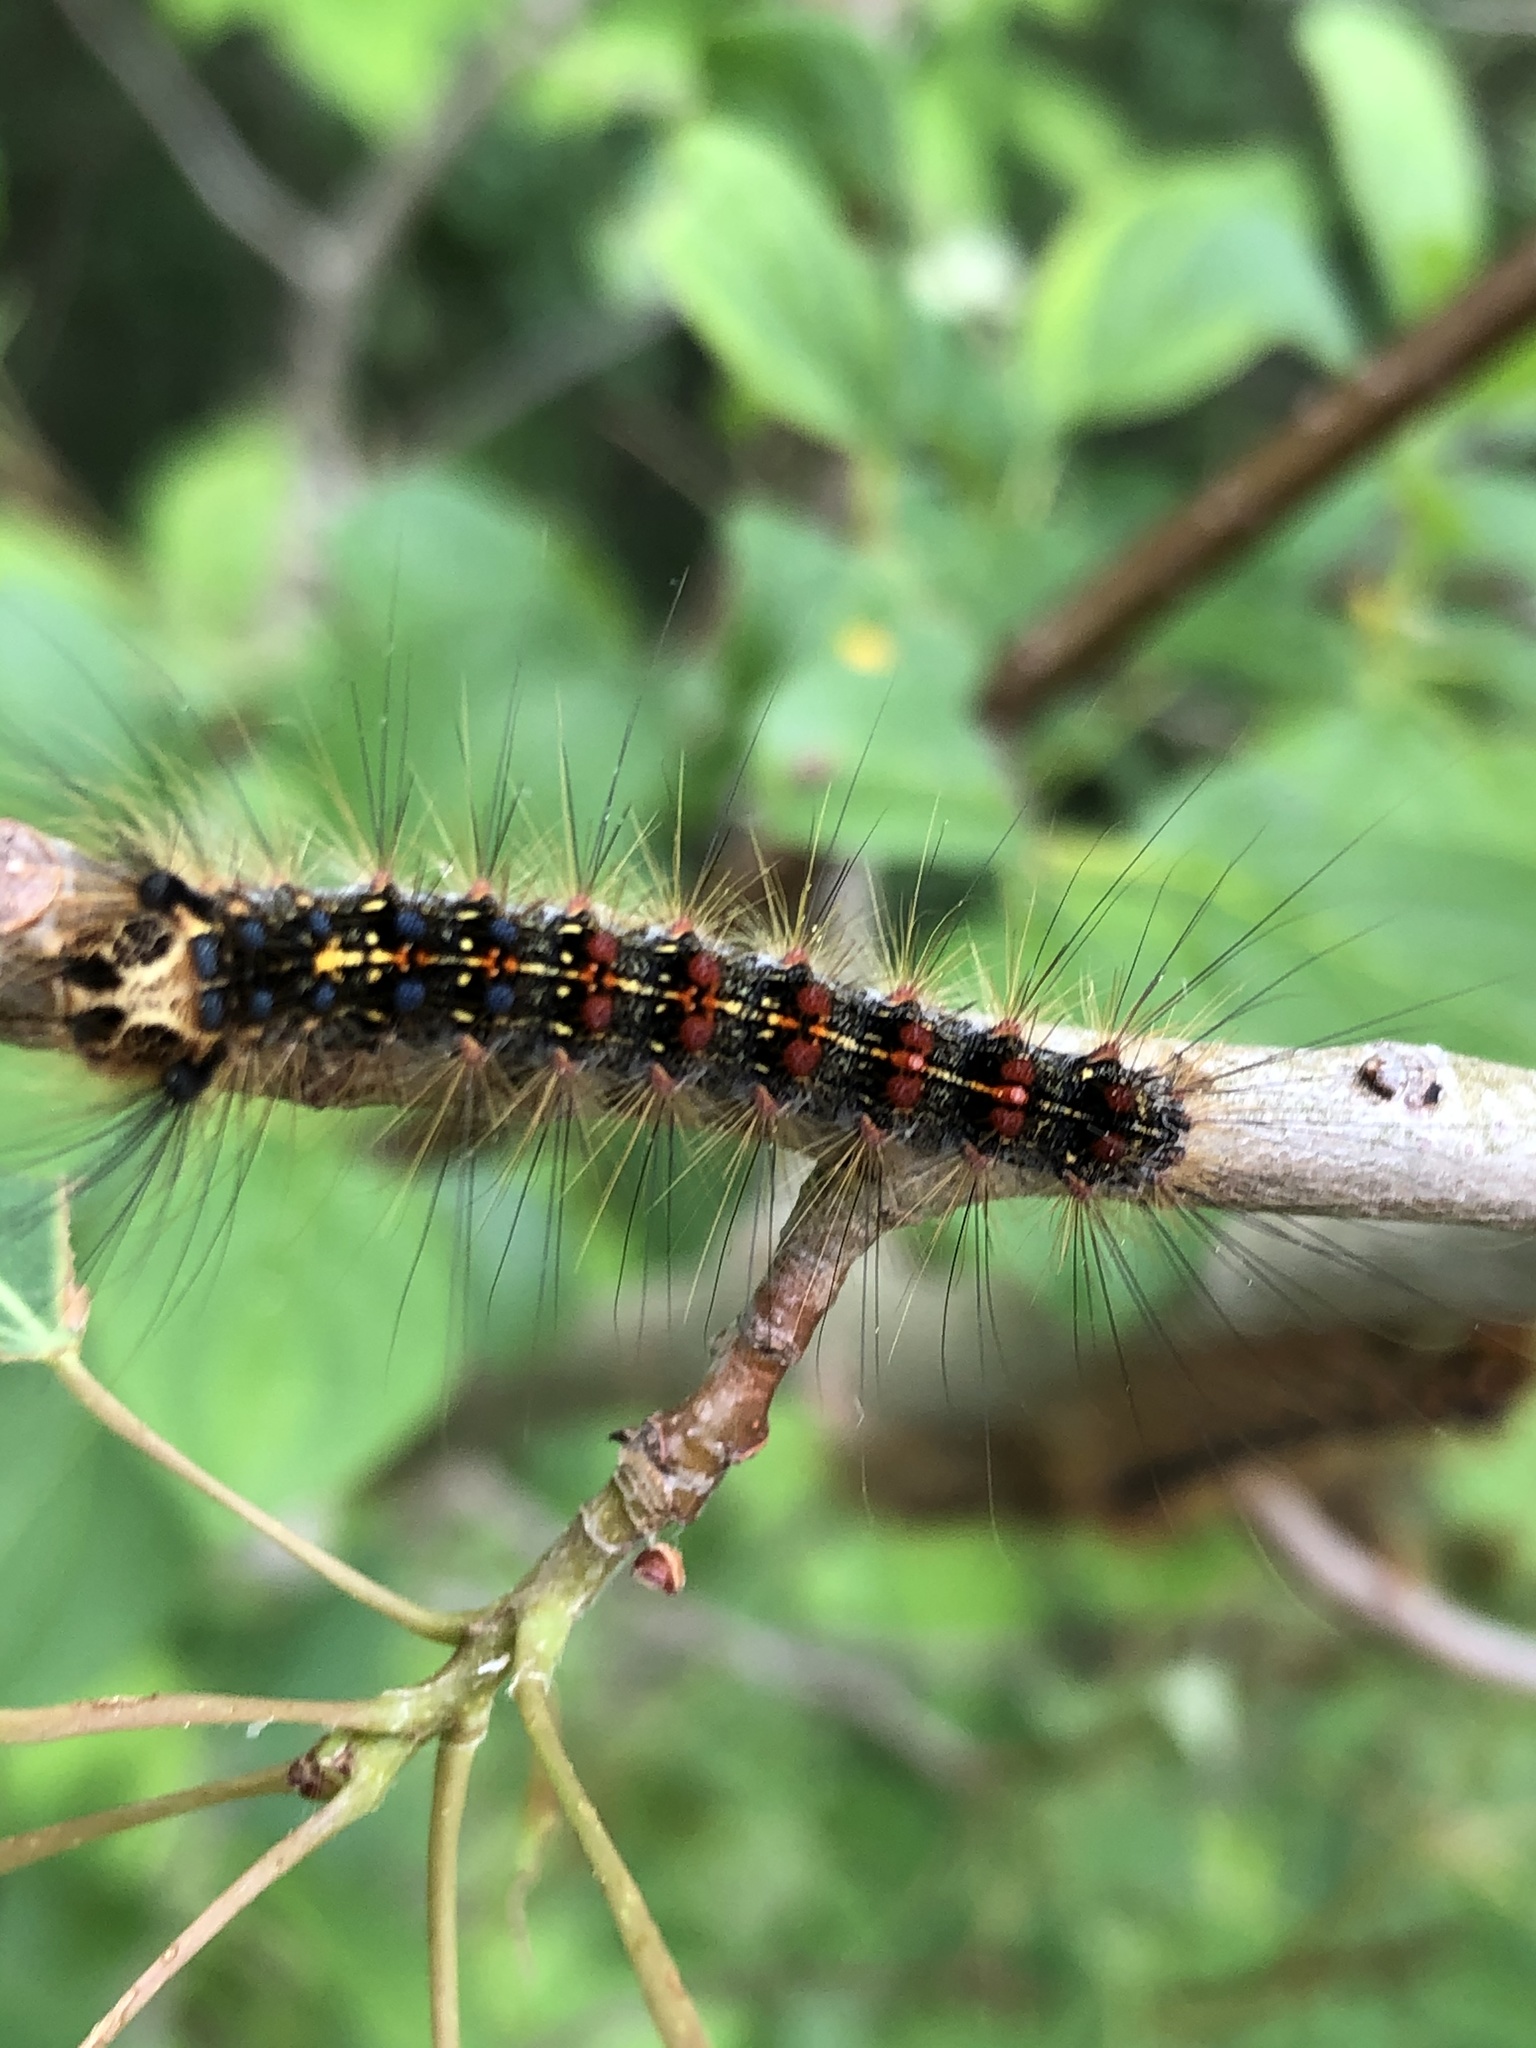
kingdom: Animalia
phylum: Arthropoda
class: Insecta
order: Lepidoptera
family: Erebidae
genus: Lymantria
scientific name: Lymantria dispar
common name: Gypsy moth
